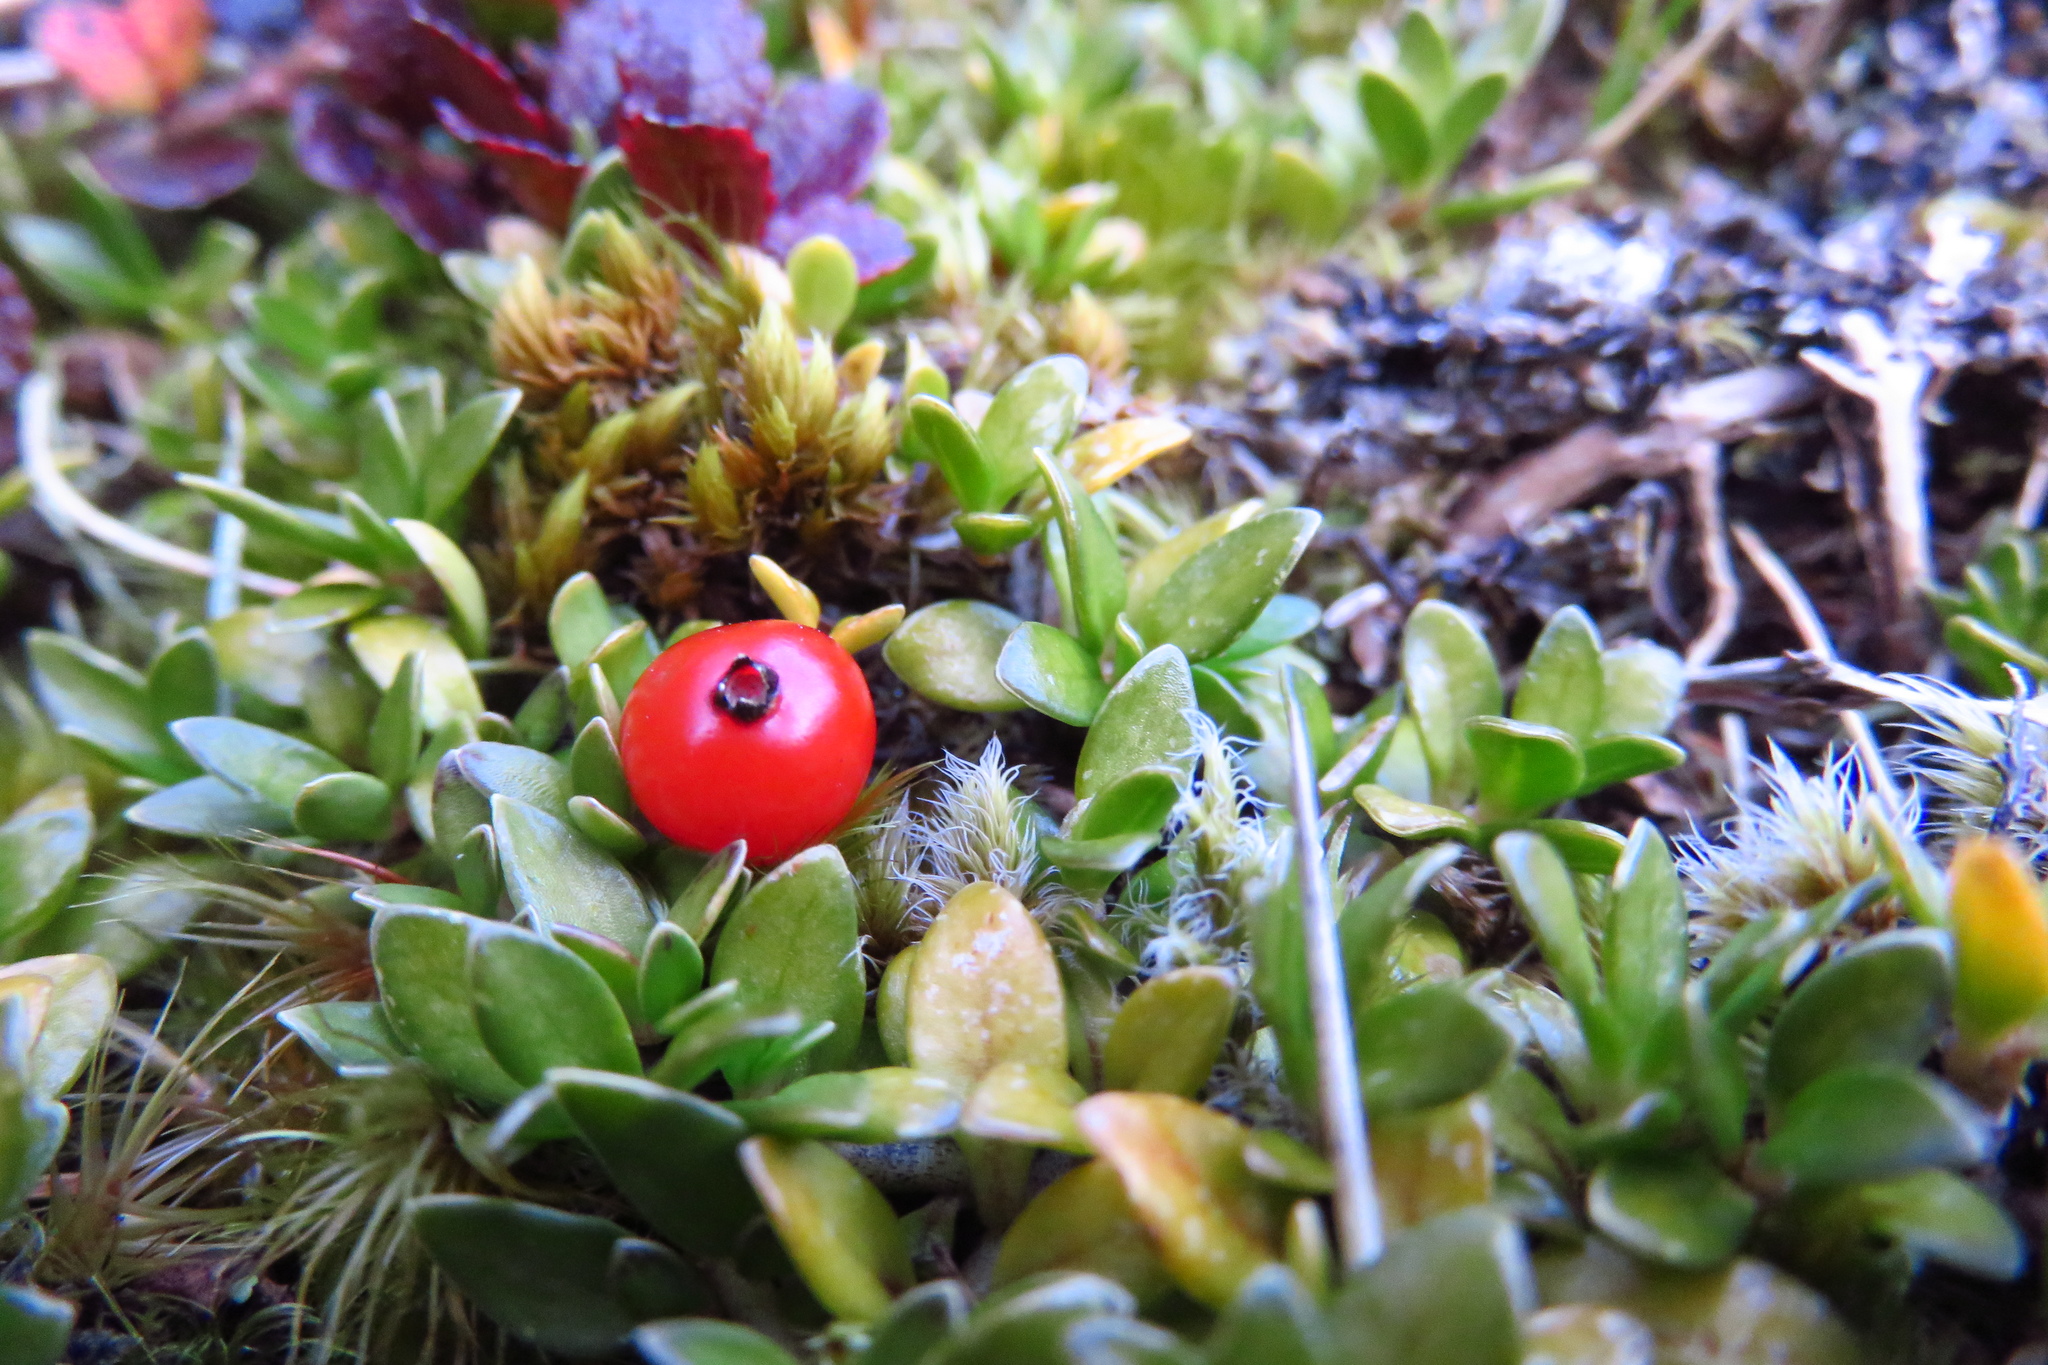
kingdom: Plantae
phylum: Tracheophyta
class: Magnoliopsida
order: Gentianales
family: Rubiaceae
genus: Coprosma
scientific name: Coprosma perpusilla
